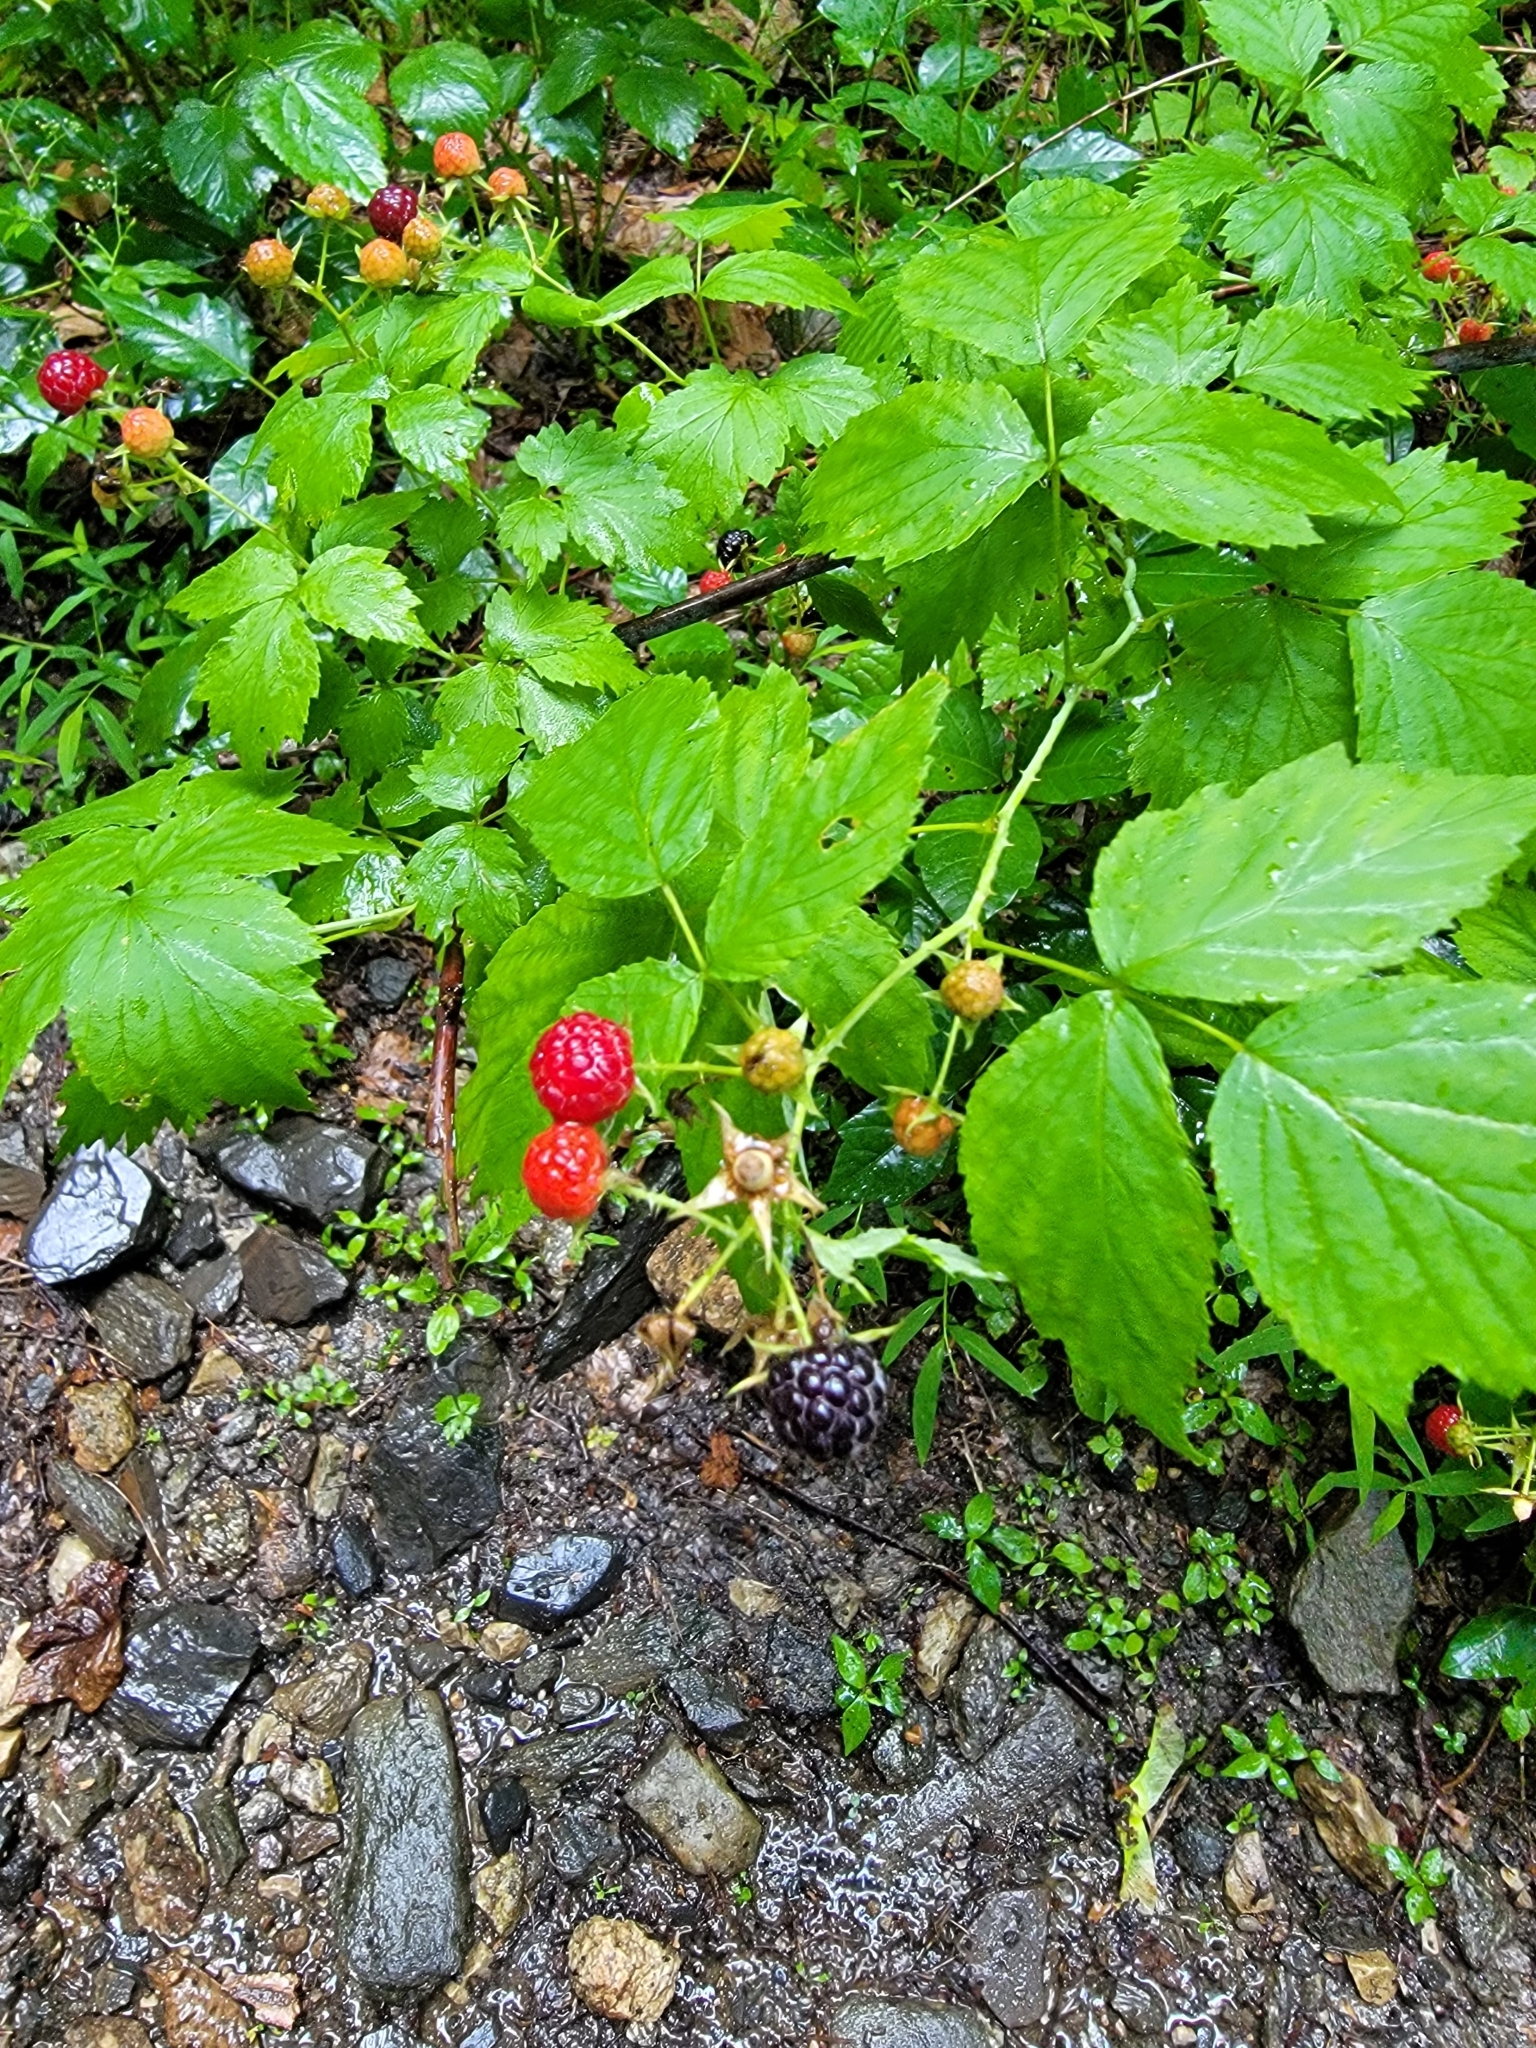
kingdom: Plantae
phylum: Tracheophyta
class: Magnoliopsida
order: Rosales
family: Rosaceae
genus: Rubus
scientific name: Rubus occidentalis
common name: Black raspberry
